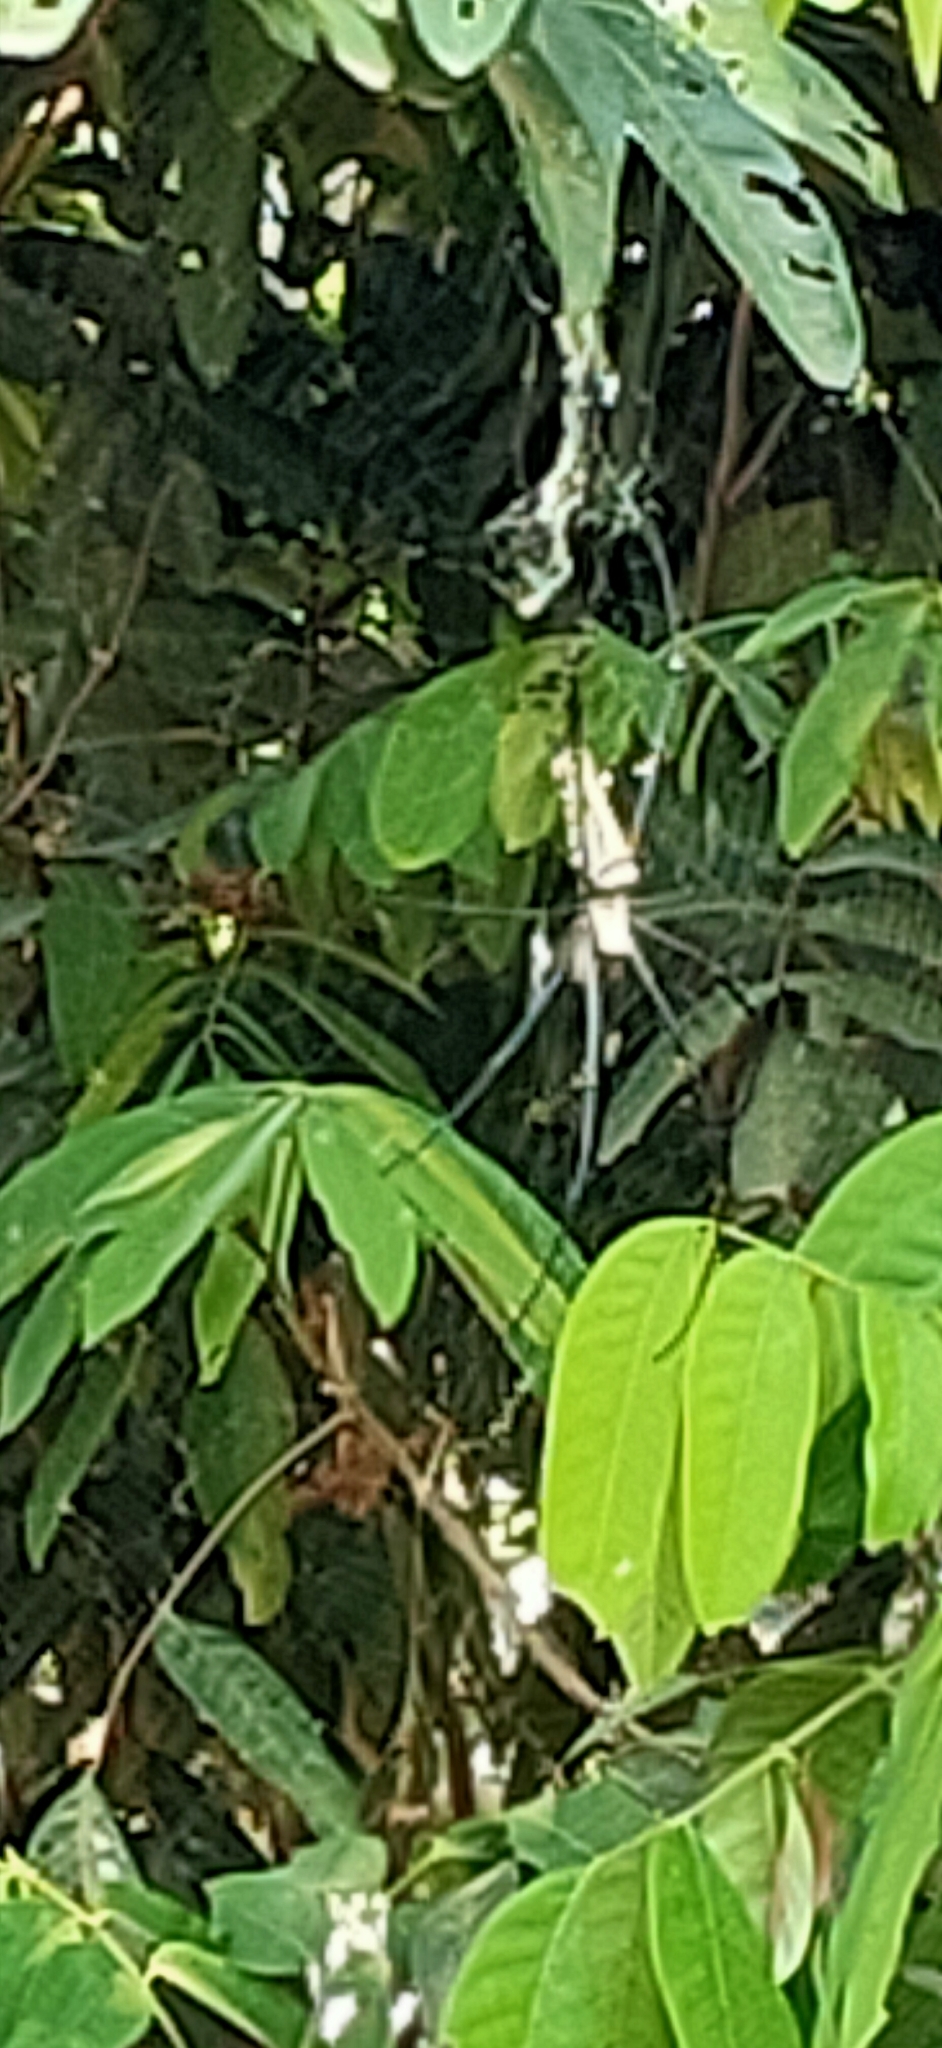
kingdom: Animalia
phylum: Arthropoda
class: Arachnida
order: Araneae
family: Araneidae
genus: Nephila
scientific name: Nephila pilipes
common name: Giant golden orb weaver
